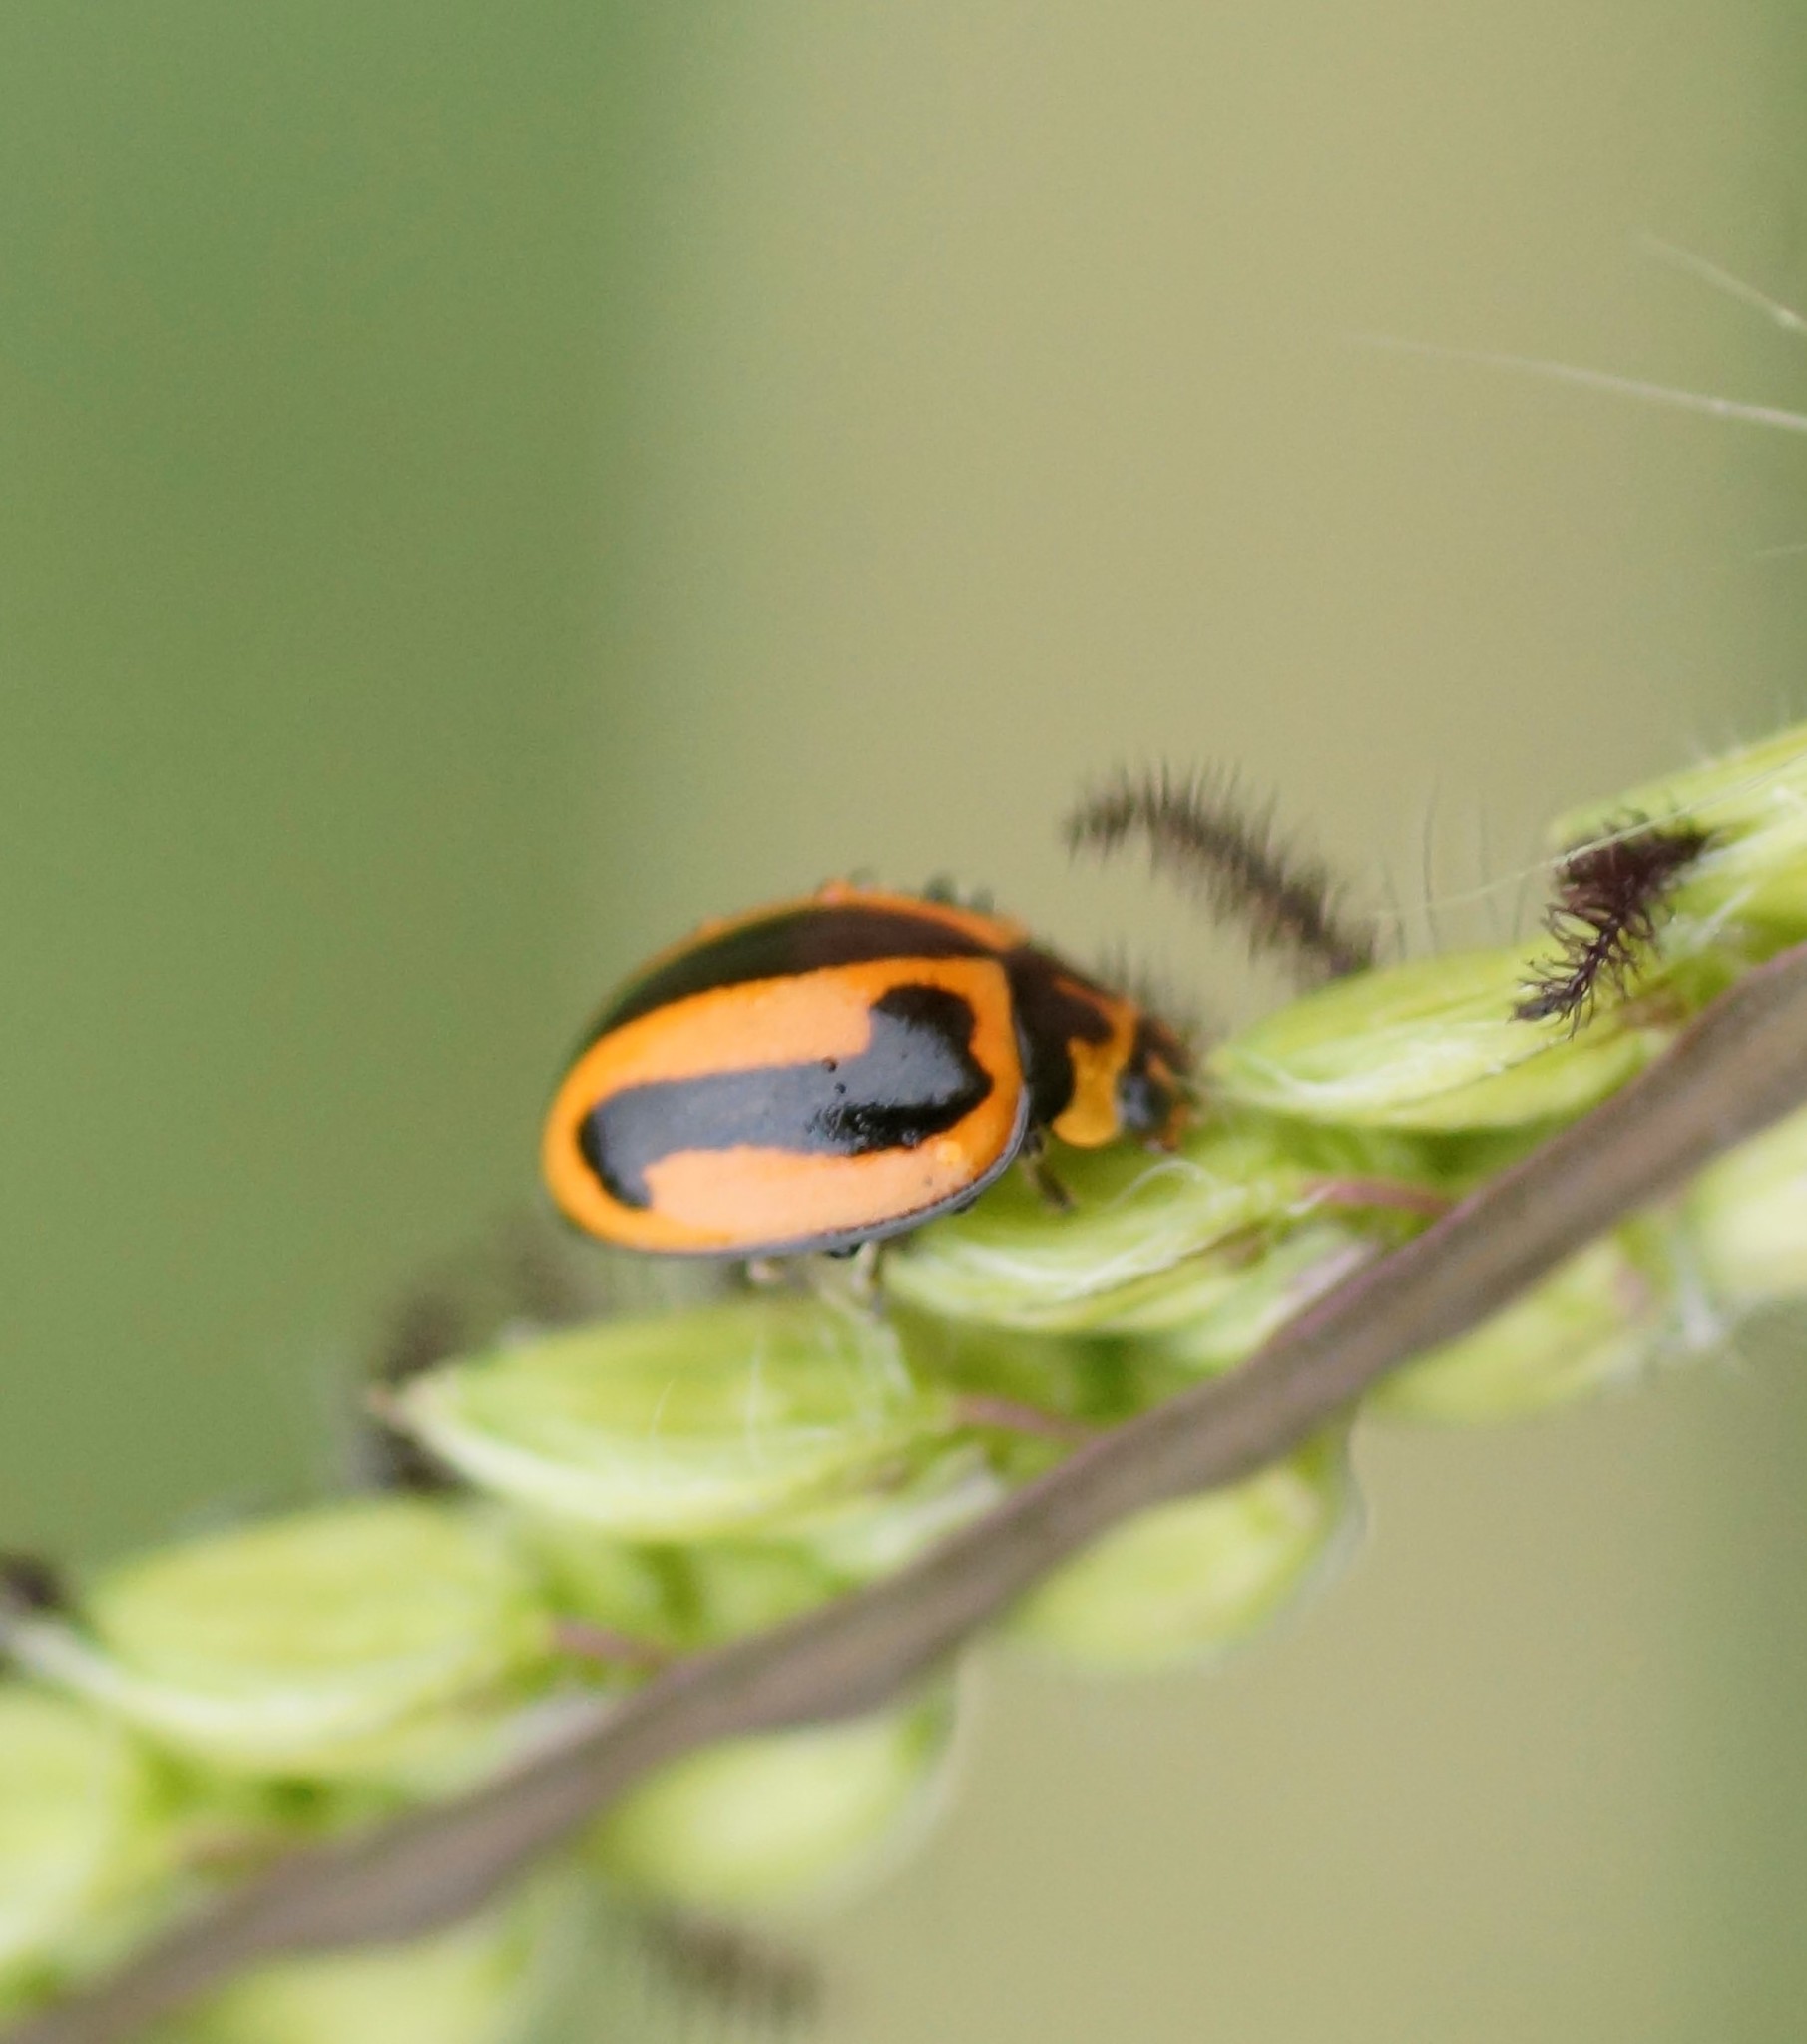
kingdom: Animalia
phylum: Arthropoda
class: Insecta
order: Coleoptera
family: Coccinellidae
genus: Micraspis
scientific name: Micraspis frenata
